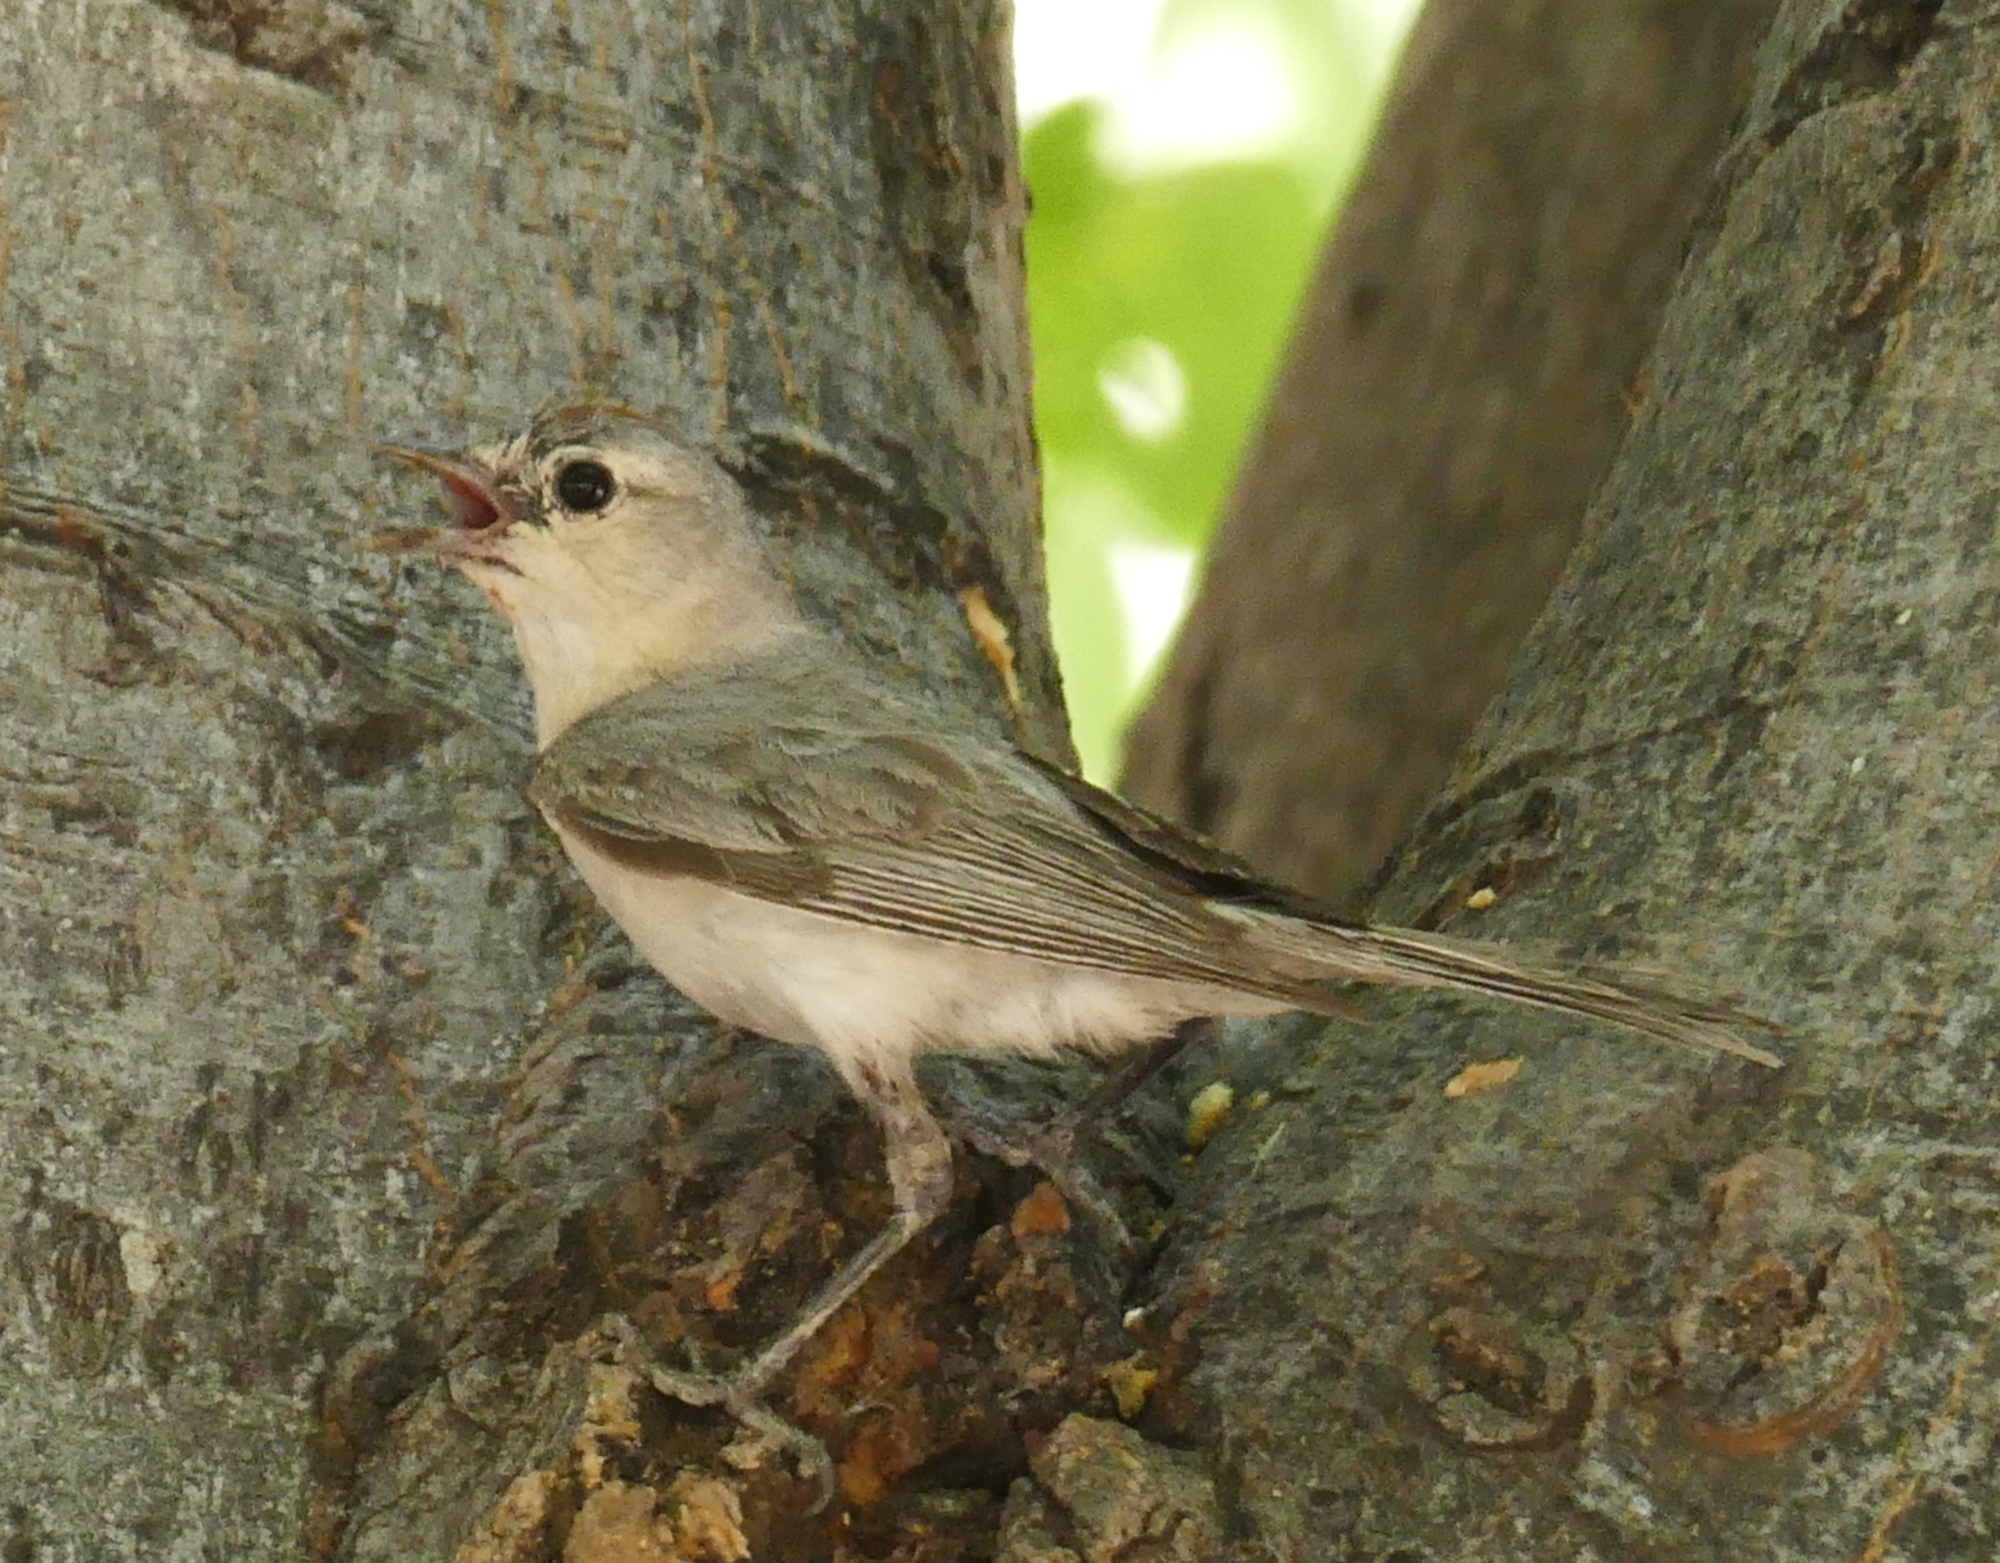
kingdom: Animalia
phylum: Chordata
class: Aves
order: Passeriformes
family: Parulidae
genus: Leiothlypis
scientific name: Leiothlypis luciae
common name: Lucy's warbler
